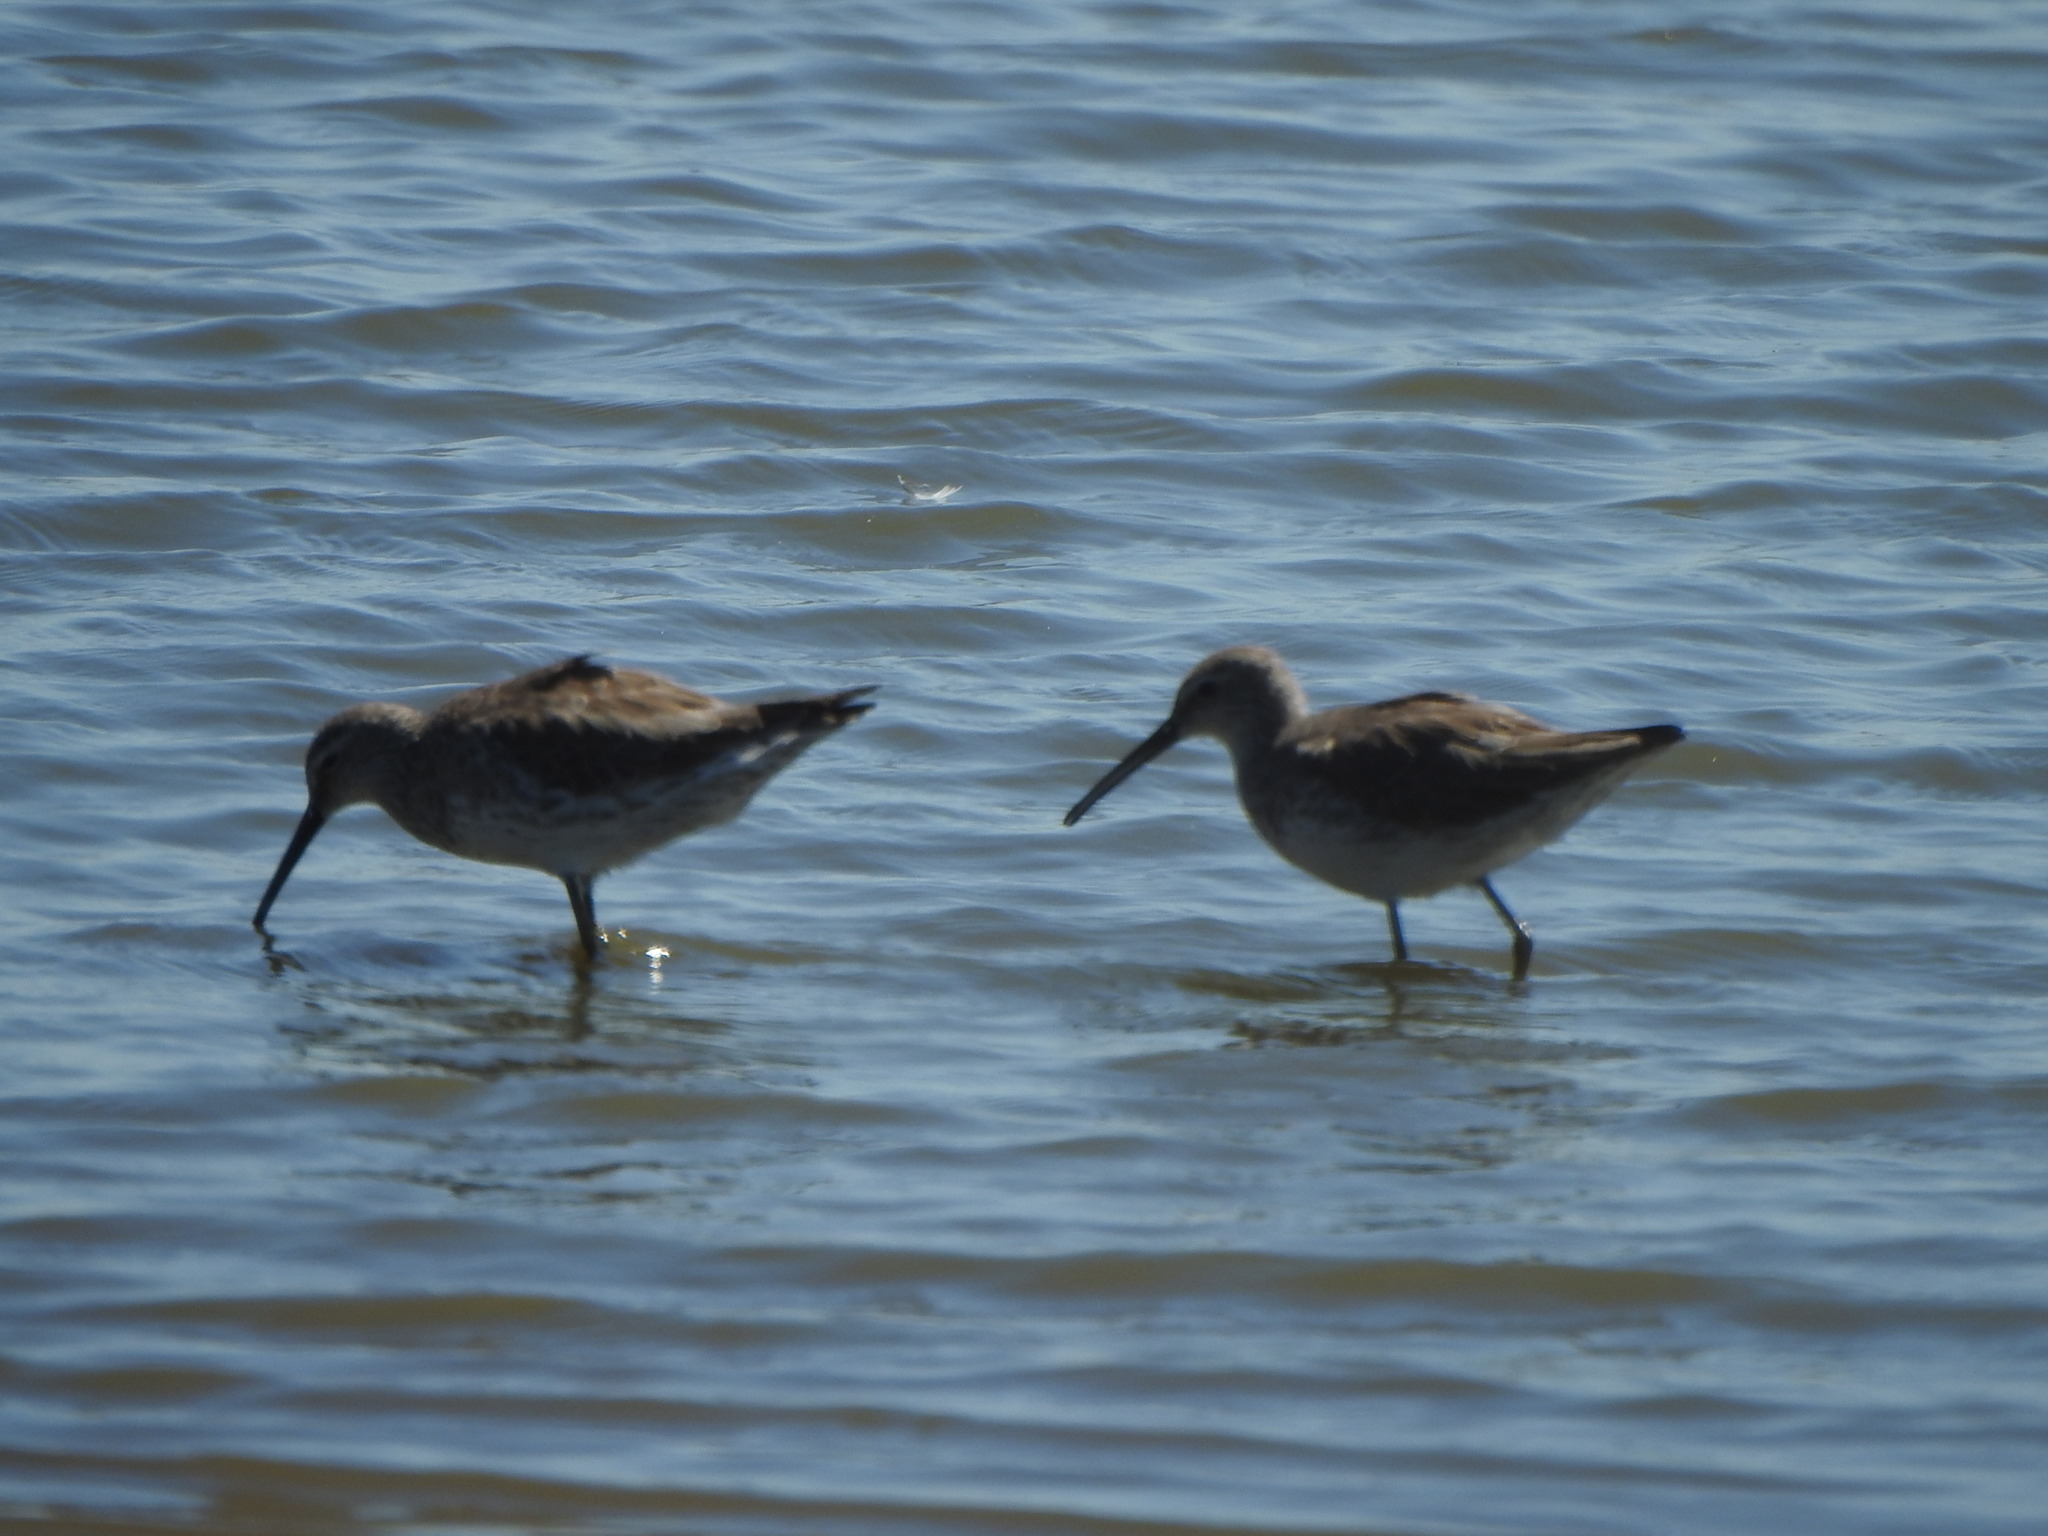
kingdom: Animalia
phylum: Chordata
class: Aves
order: Charadriiformes
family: Scolopacidae
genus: Calidris
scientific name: Calidris himantopus
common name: Stilt sandpiper
